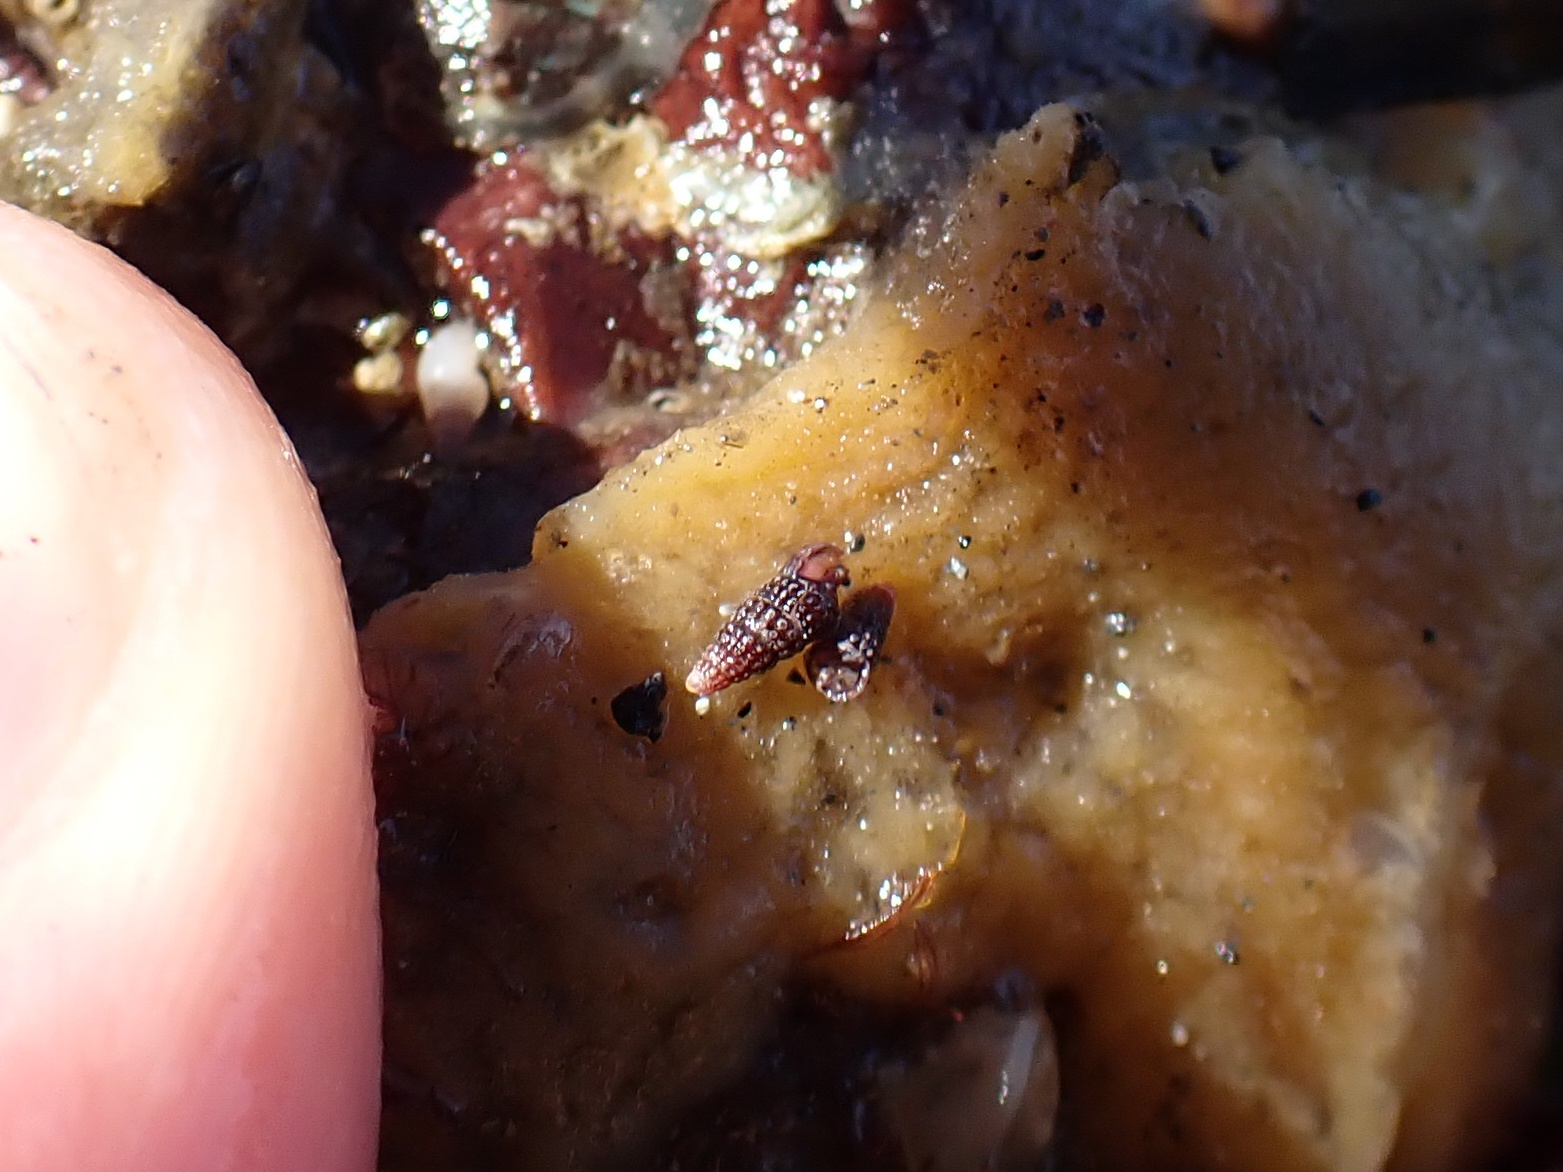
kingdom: Animalia
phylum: Mollusca
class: Gastropoda
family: Cerithiopsidae
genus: Cerithiopsis
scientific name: Cerithiopsis stejnegeri
